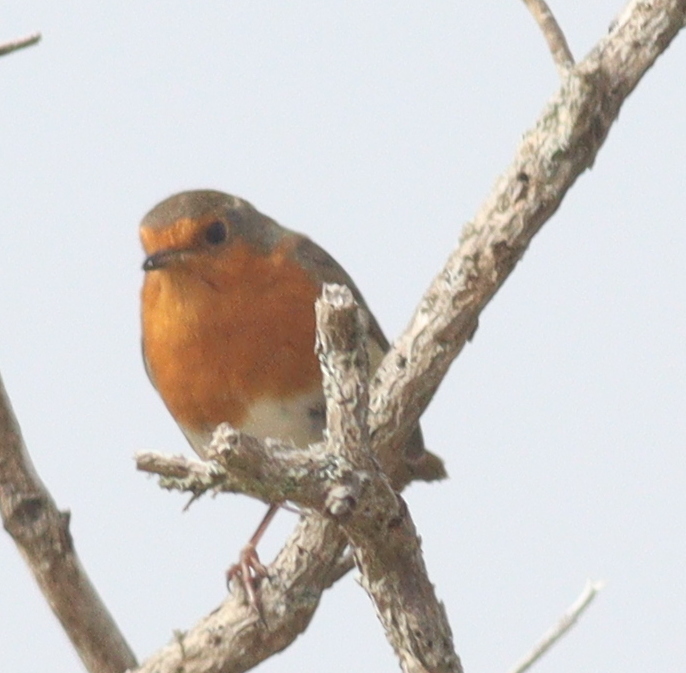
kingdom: Animalia
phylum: Chordata
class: Aves
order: Passeriformes
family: Muscicapidae
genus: Erithacus
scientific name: Erithacus rubecula
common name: European robin
